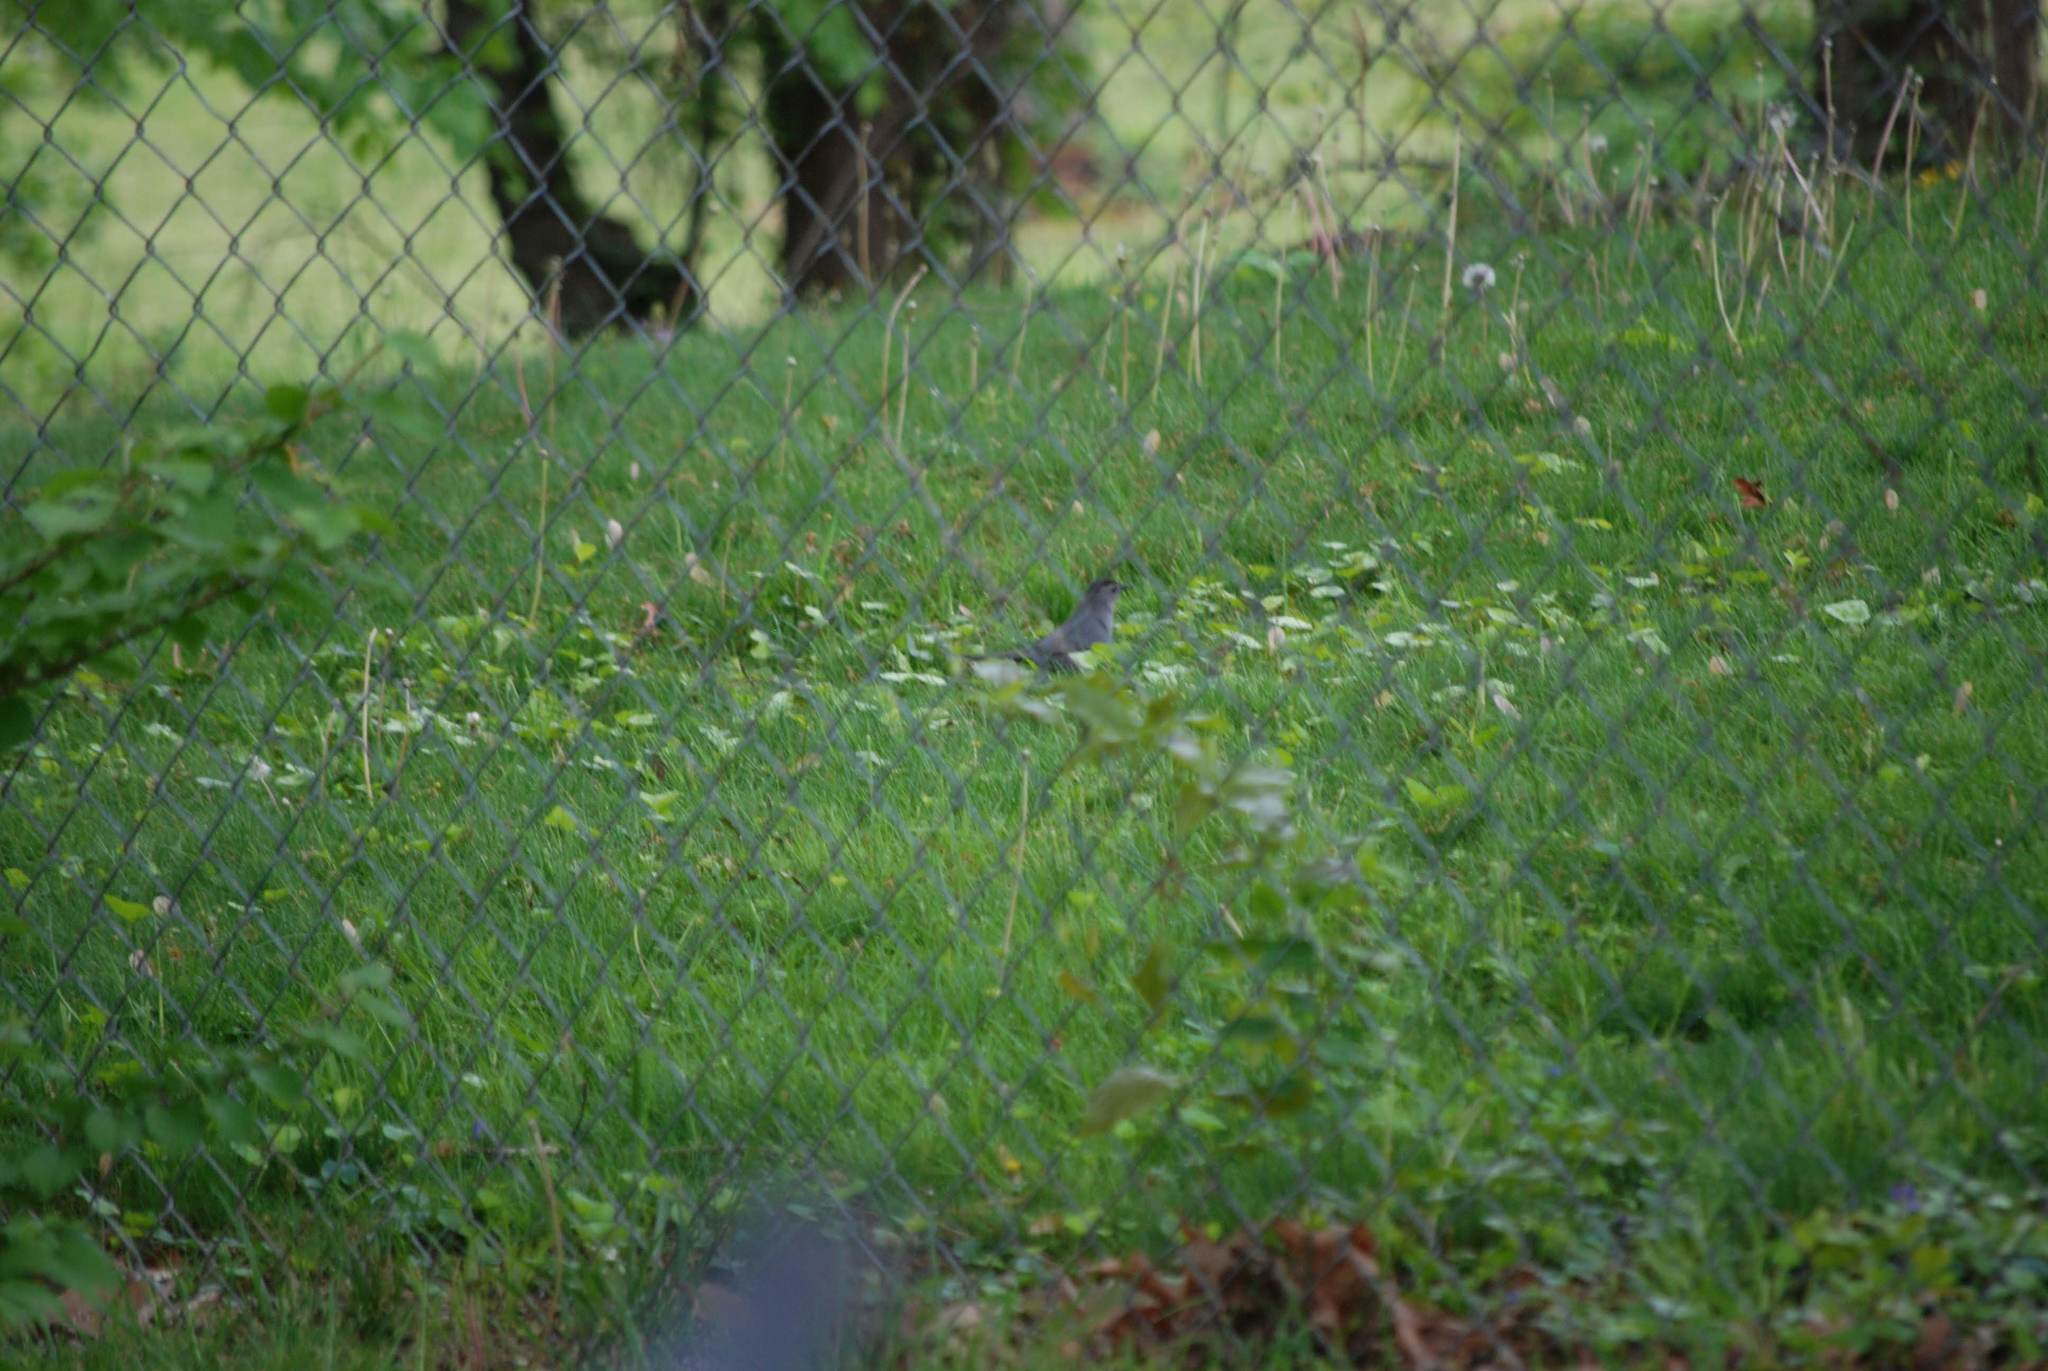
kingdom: Animalia
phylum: Chordata
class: Aves
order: Passeriformes
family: Mimidae
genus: Dumetella
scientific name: Dumetella carolinensis
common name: Gray catbird
